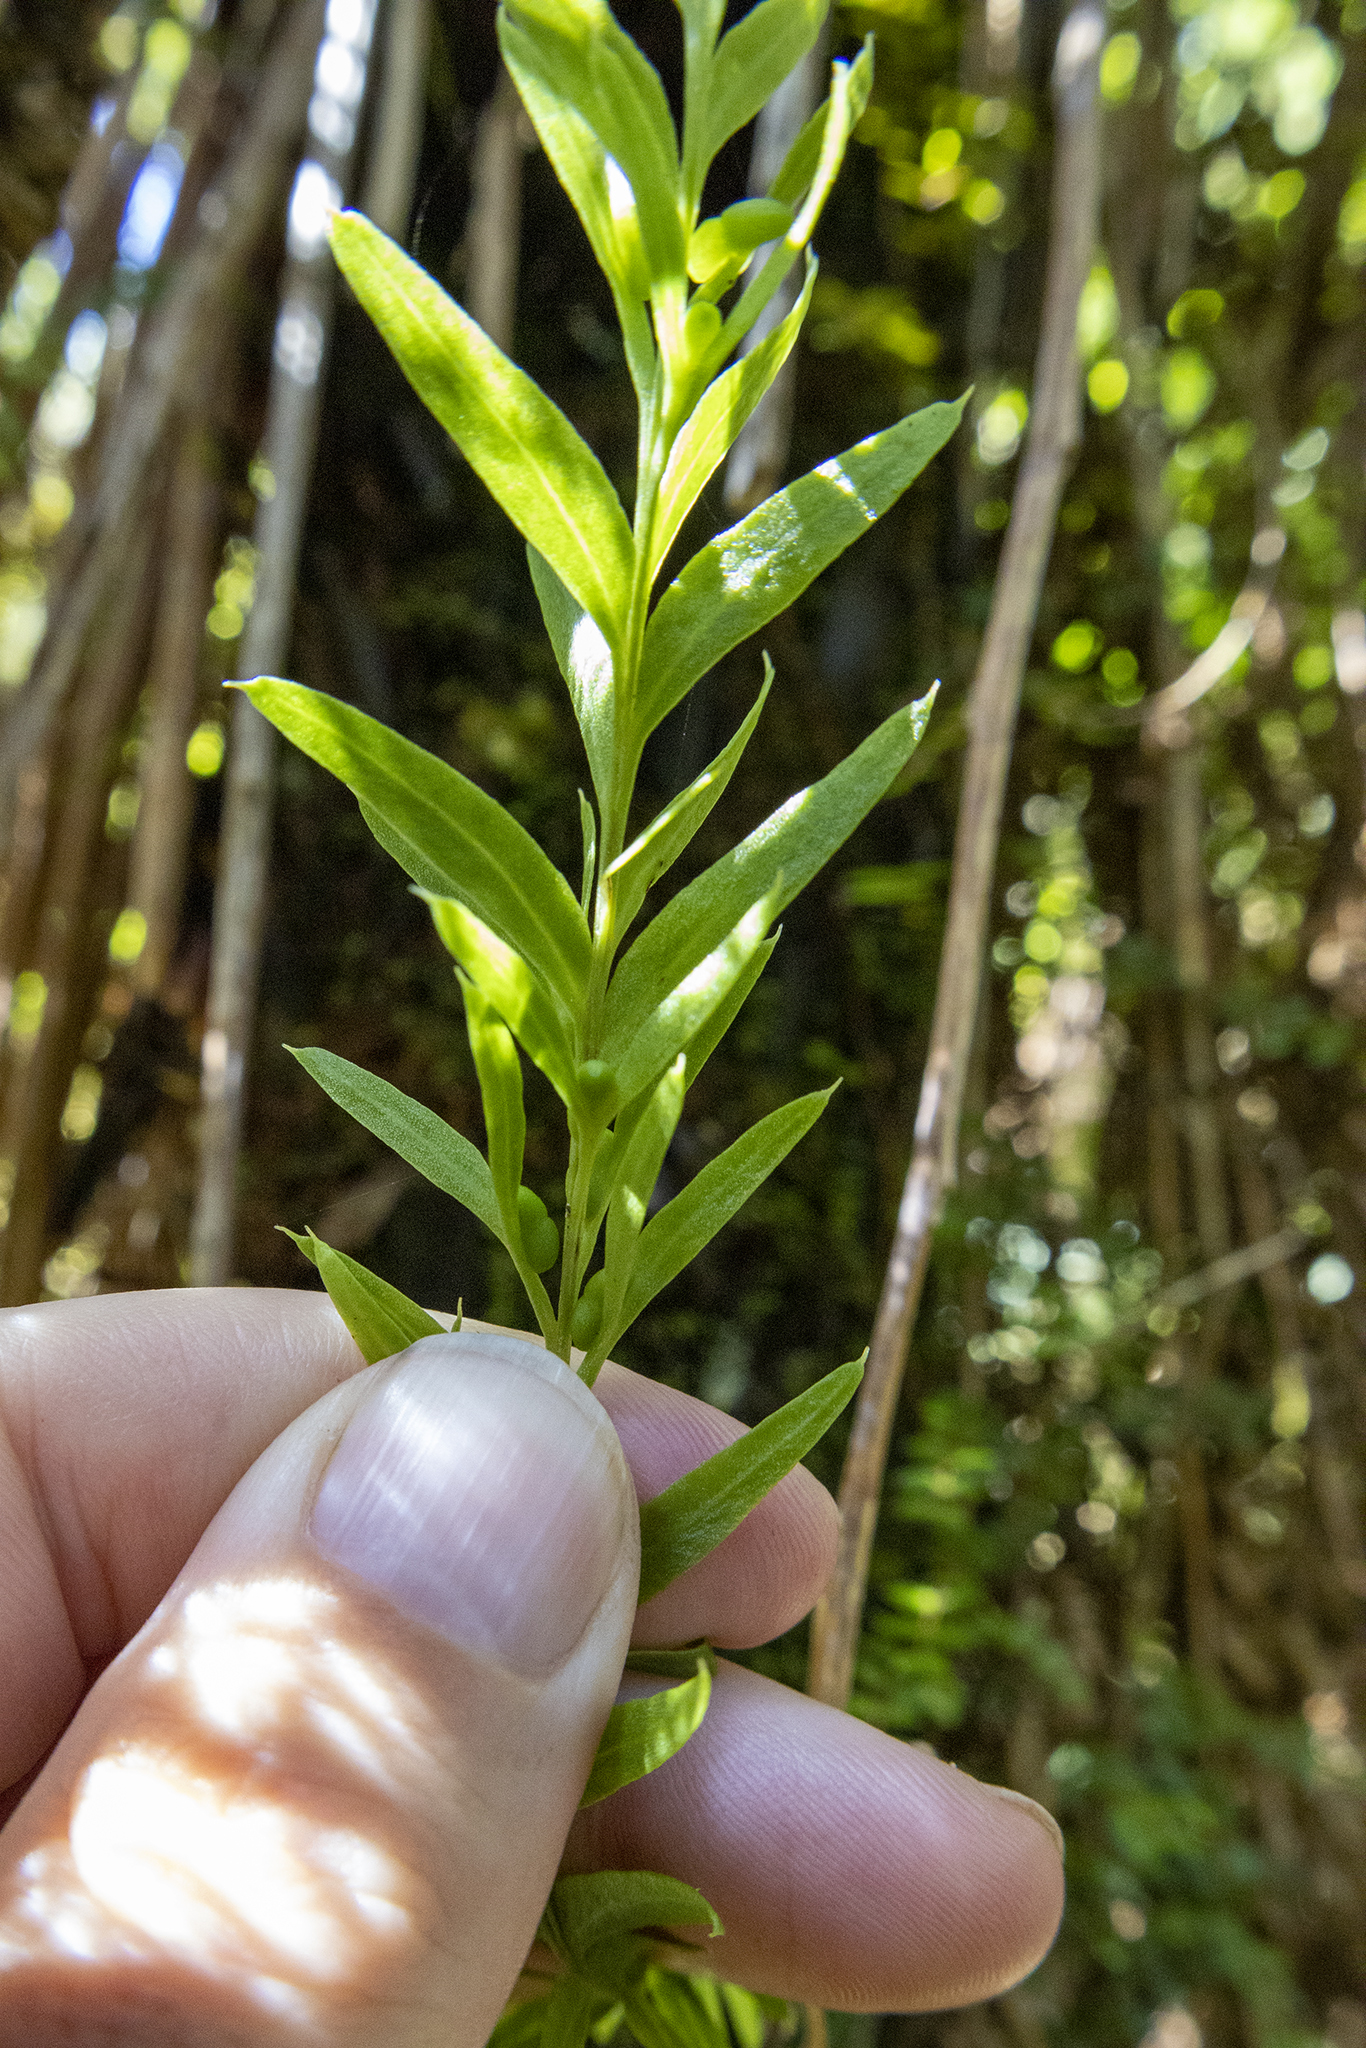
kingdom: Plantae
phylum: Tracheophyta
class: Polypodiopsida
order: Psilotales
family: Psilotaceae
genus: Tmesipteris
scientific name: Tmesipteris elongata
